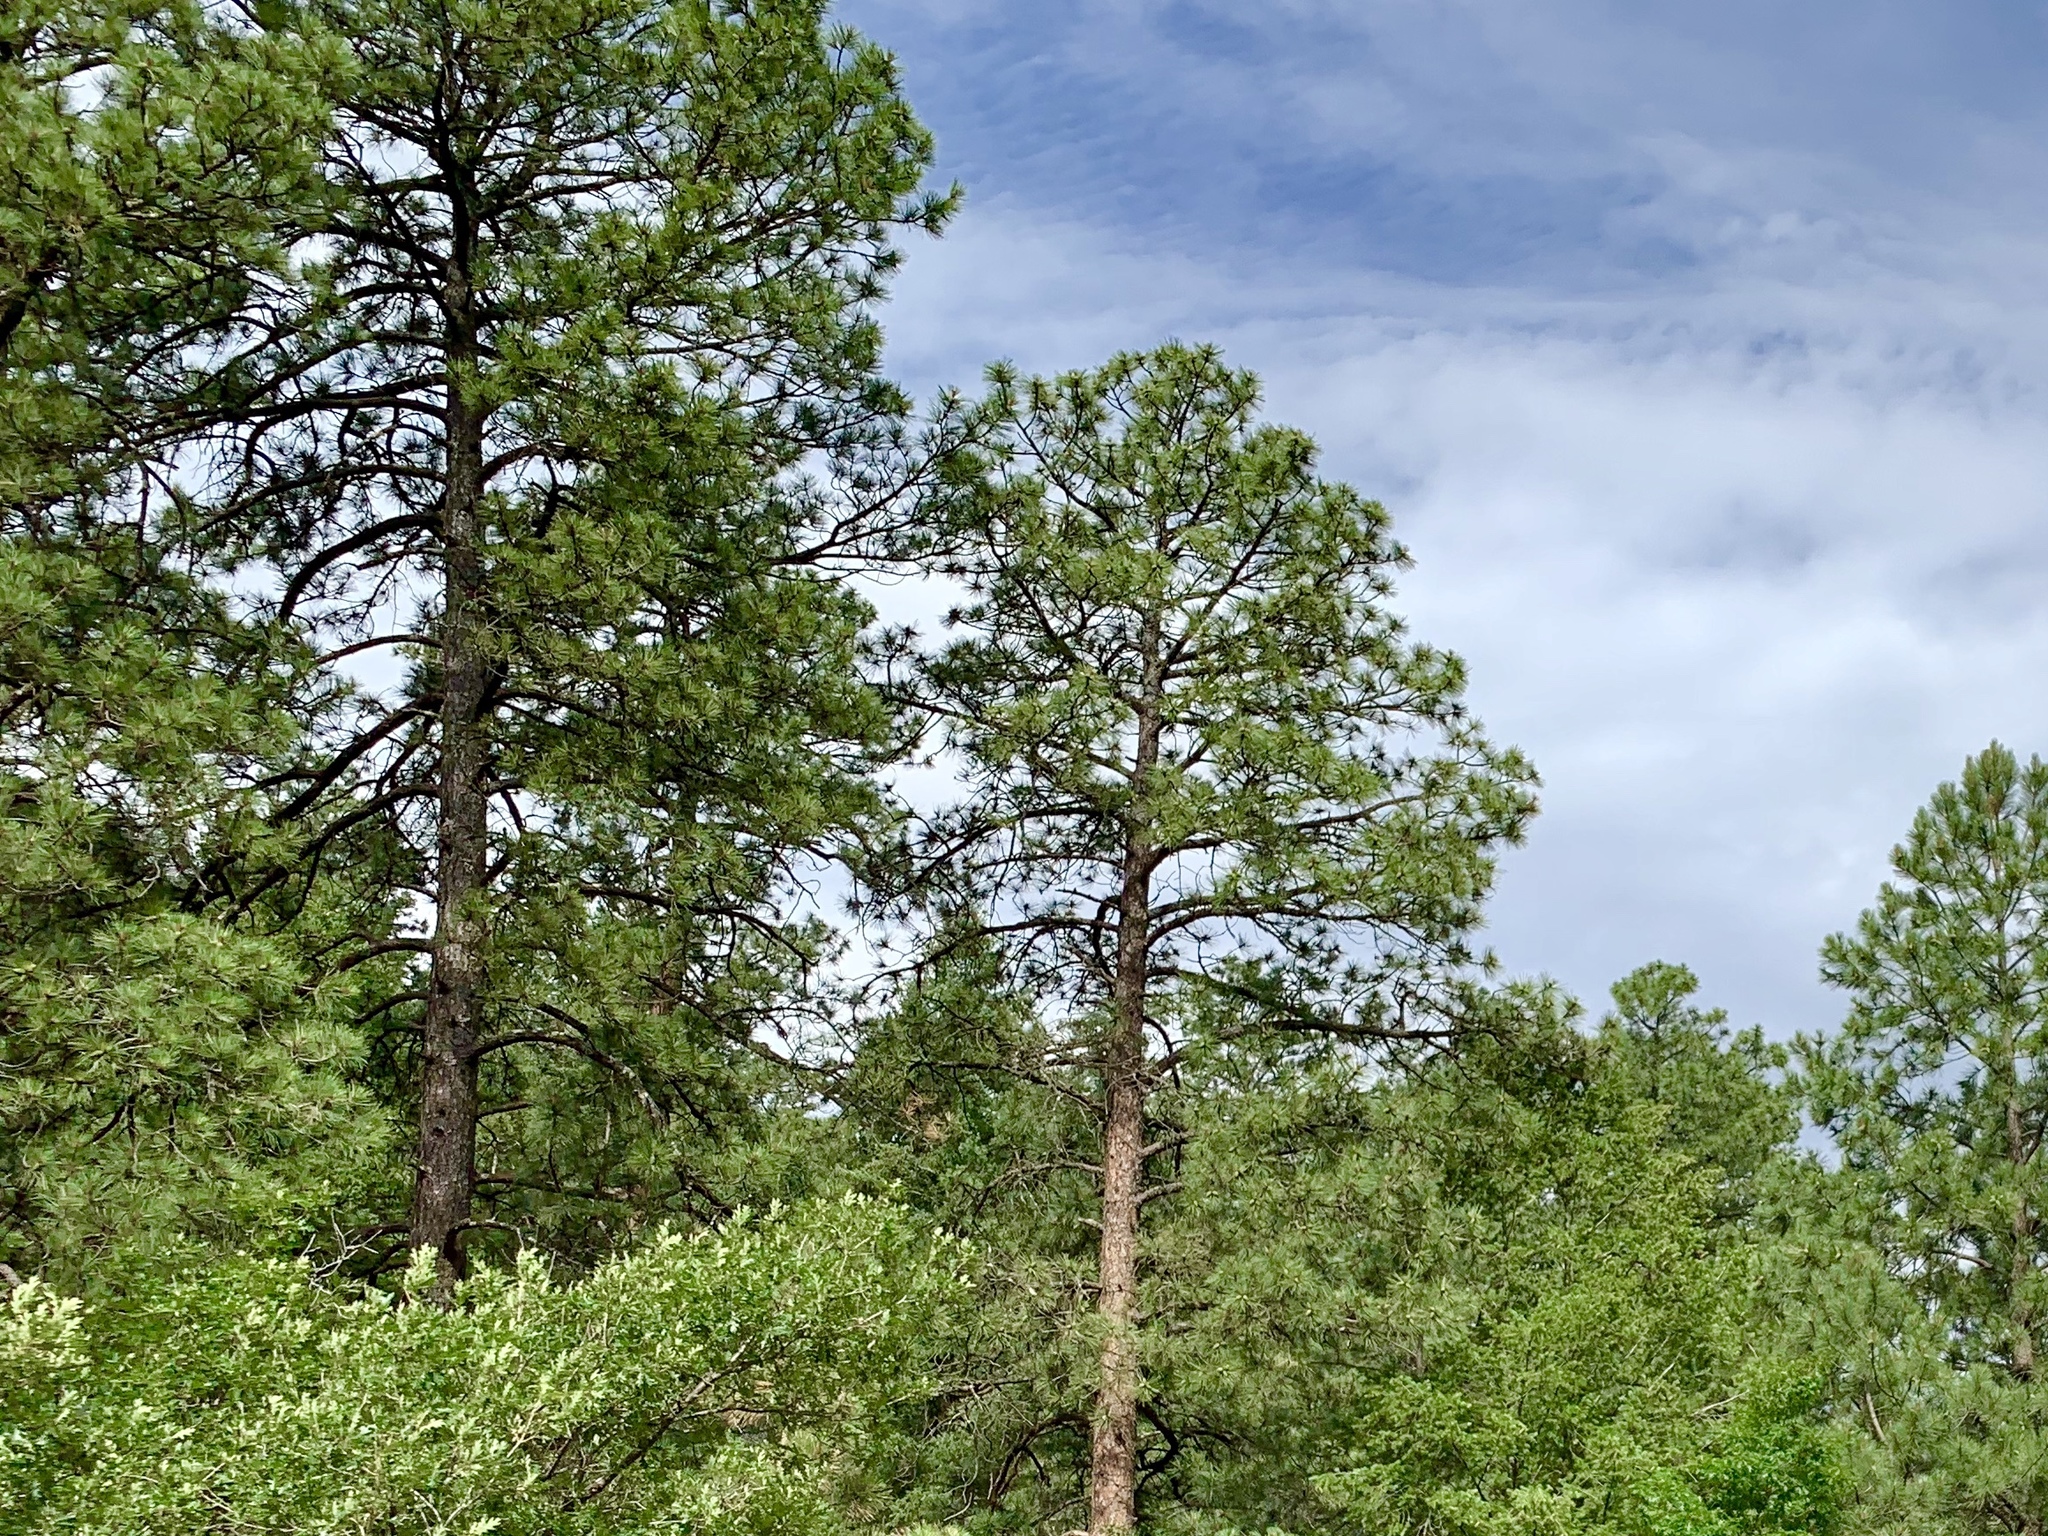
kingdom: Plantae
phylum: Tracheophyta
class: Pinopsida
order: Pinales
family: Pinaceae
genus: Pinus
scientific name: Pinus ponderosa
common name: Western yellow-pine
